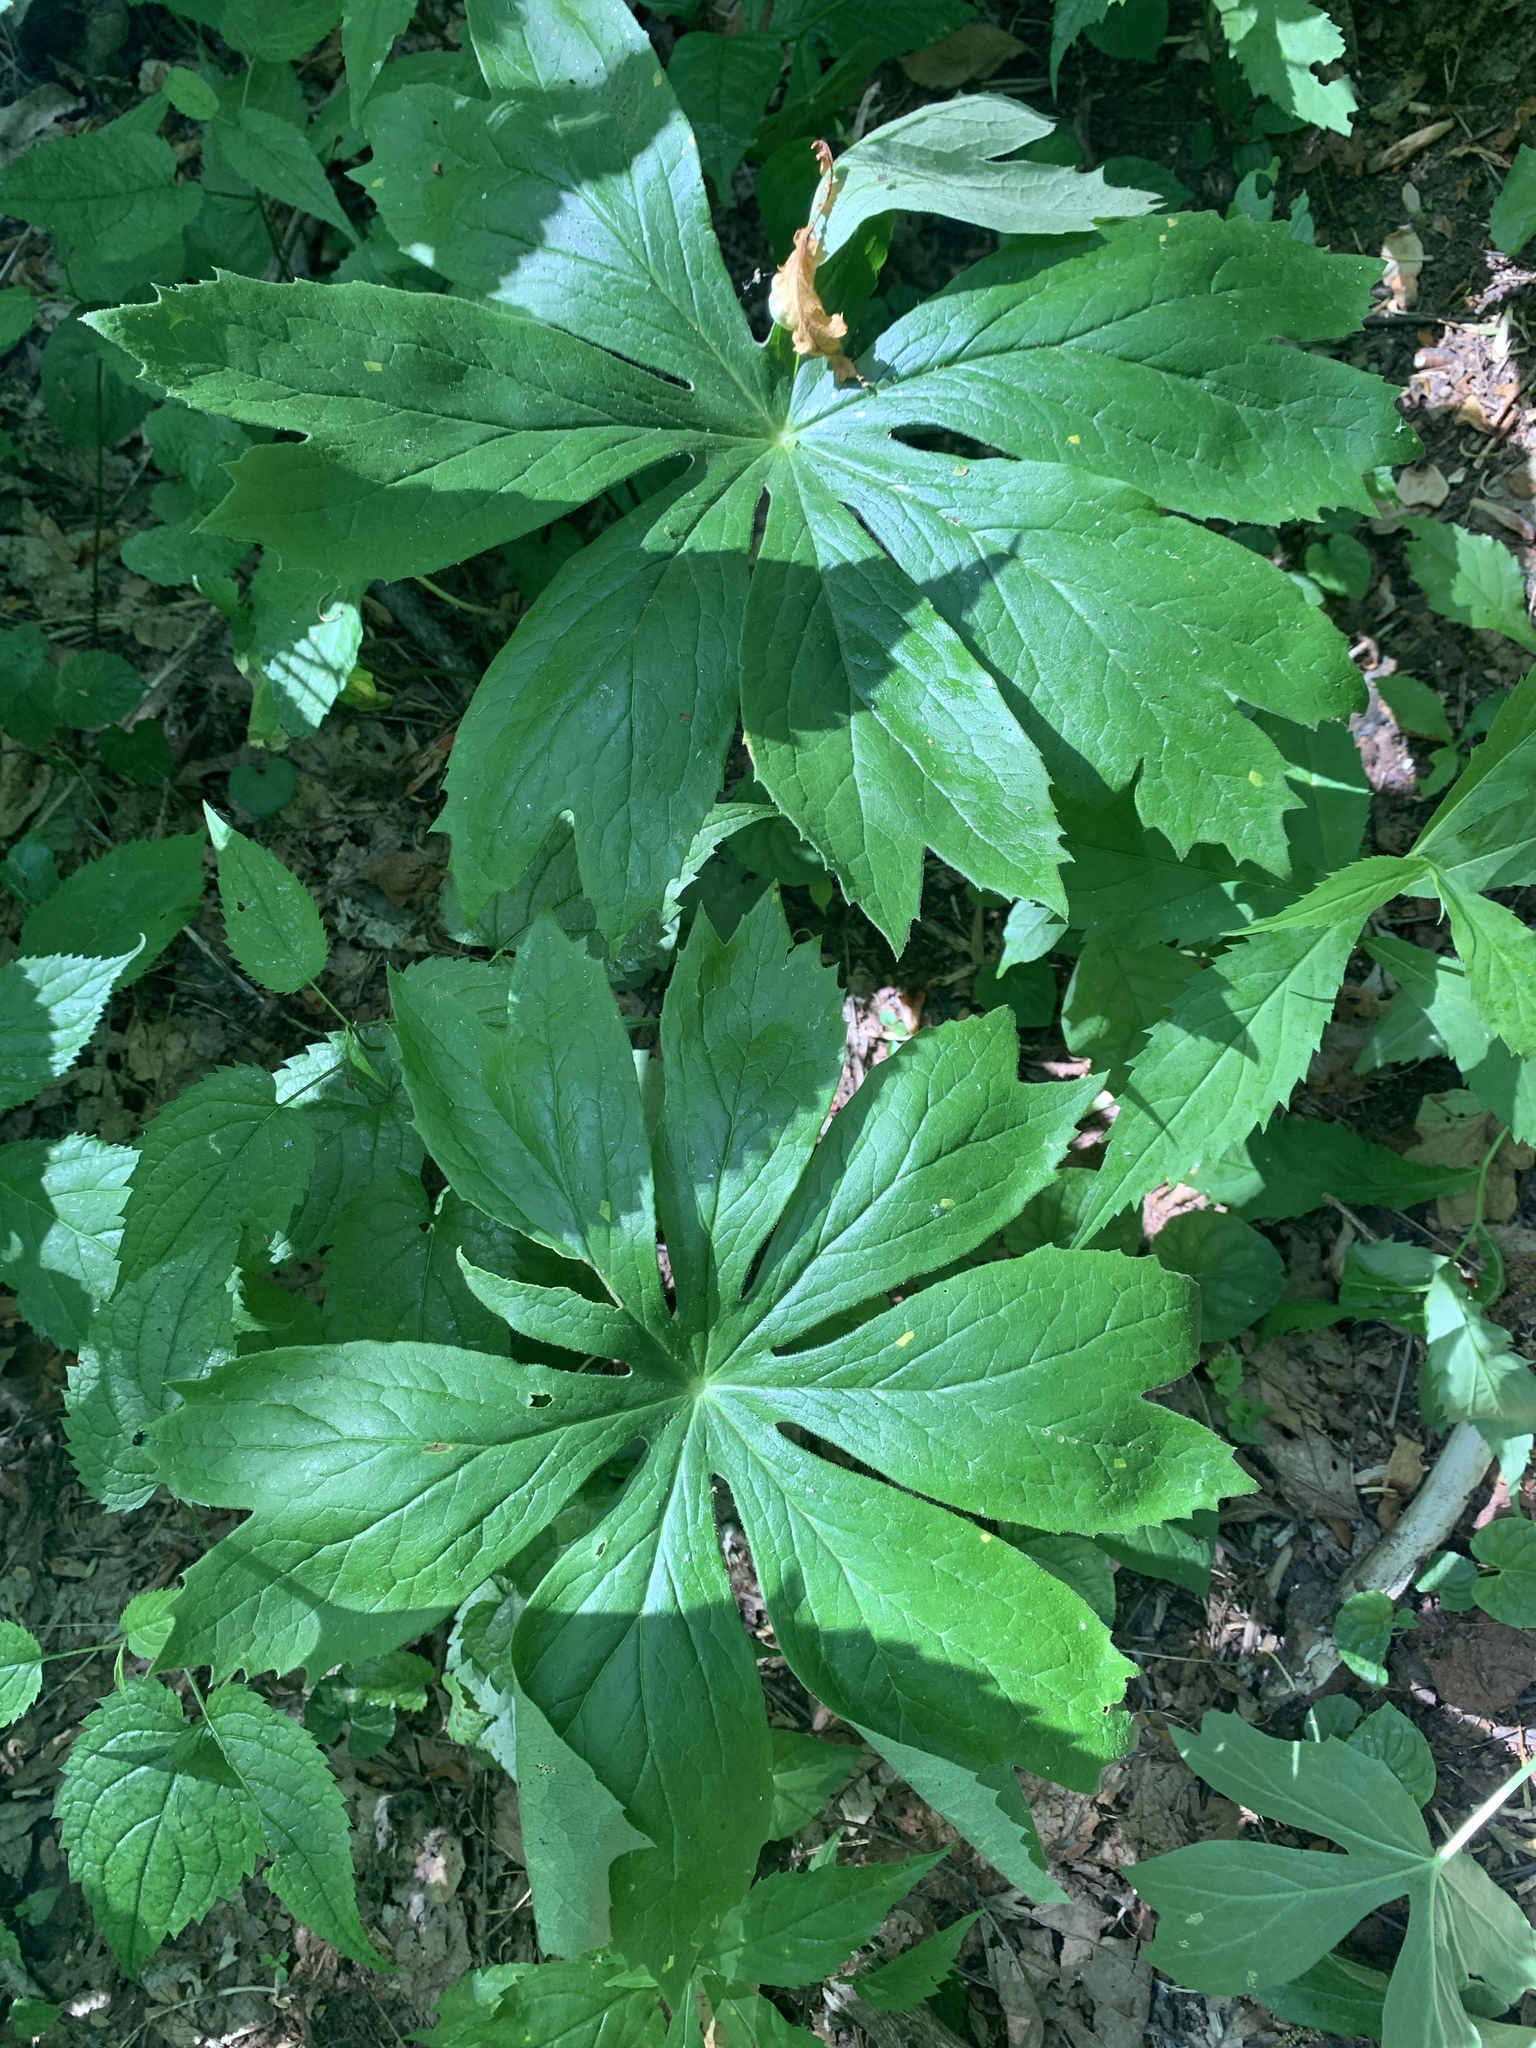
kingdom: Plantae
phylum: Tracheophyta
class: Magnoliopsida
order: Ranunculales
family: Berberidaceae
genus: Podophyllum
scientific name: Podophyllum peltatum
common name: Wild mandrake
